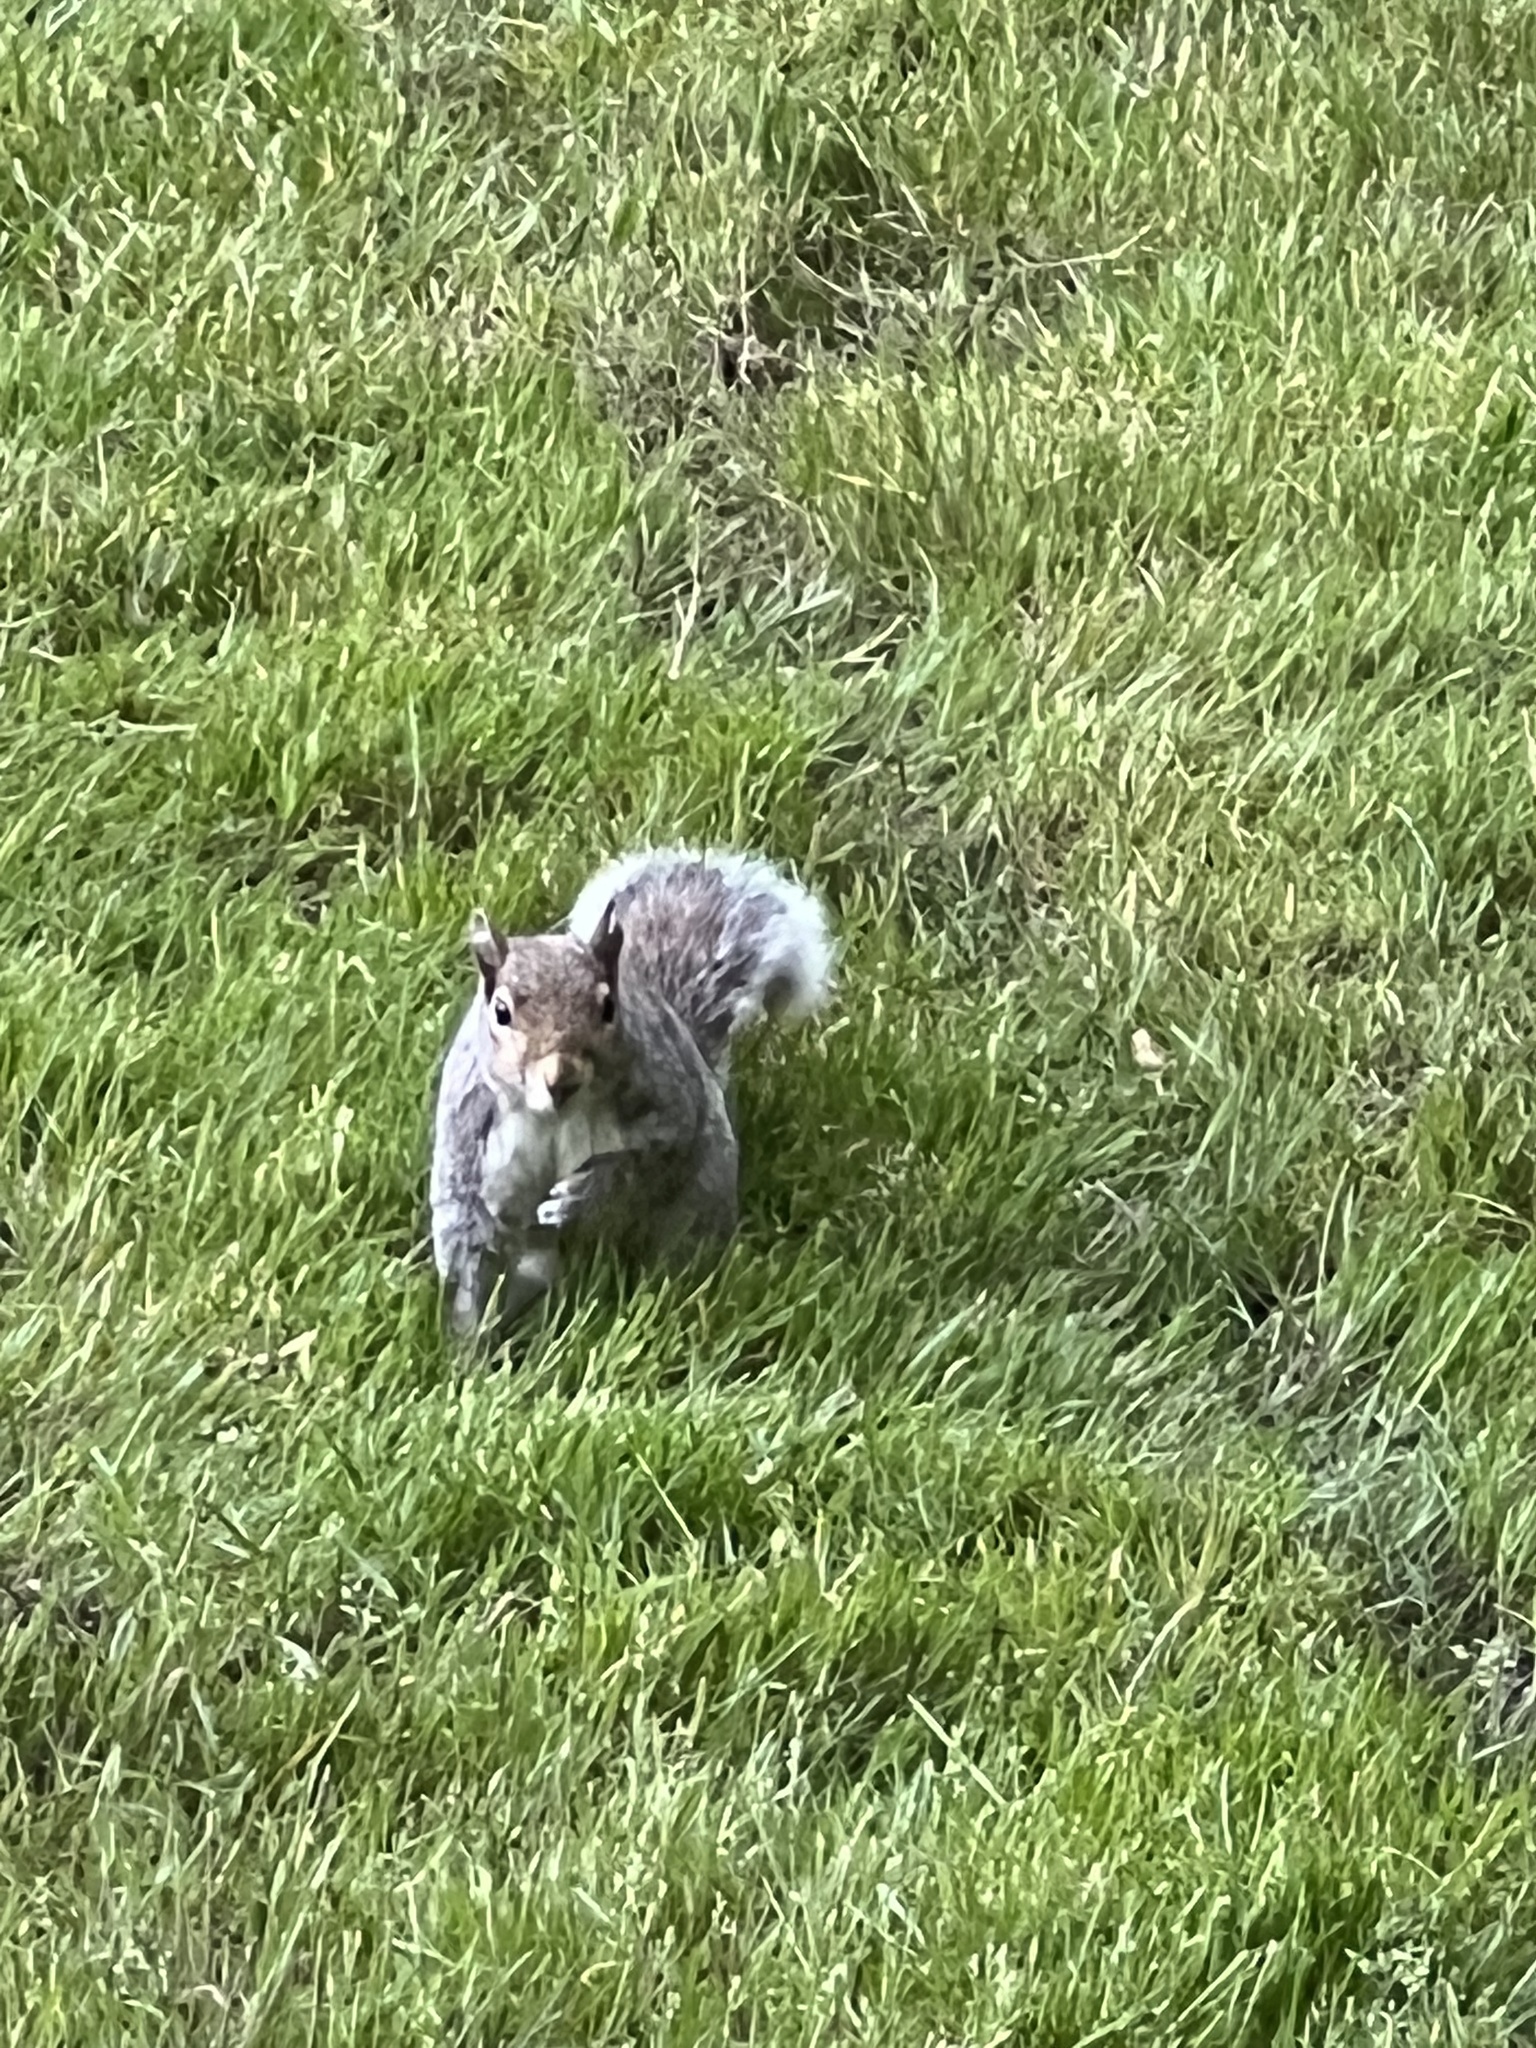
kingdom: Animalia
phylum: Chordata
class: Mammalia
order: Rodentia
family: Sciuridae
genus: Sciurus
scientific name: Sciurus carolinensis
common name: Eastern gray squirrel
